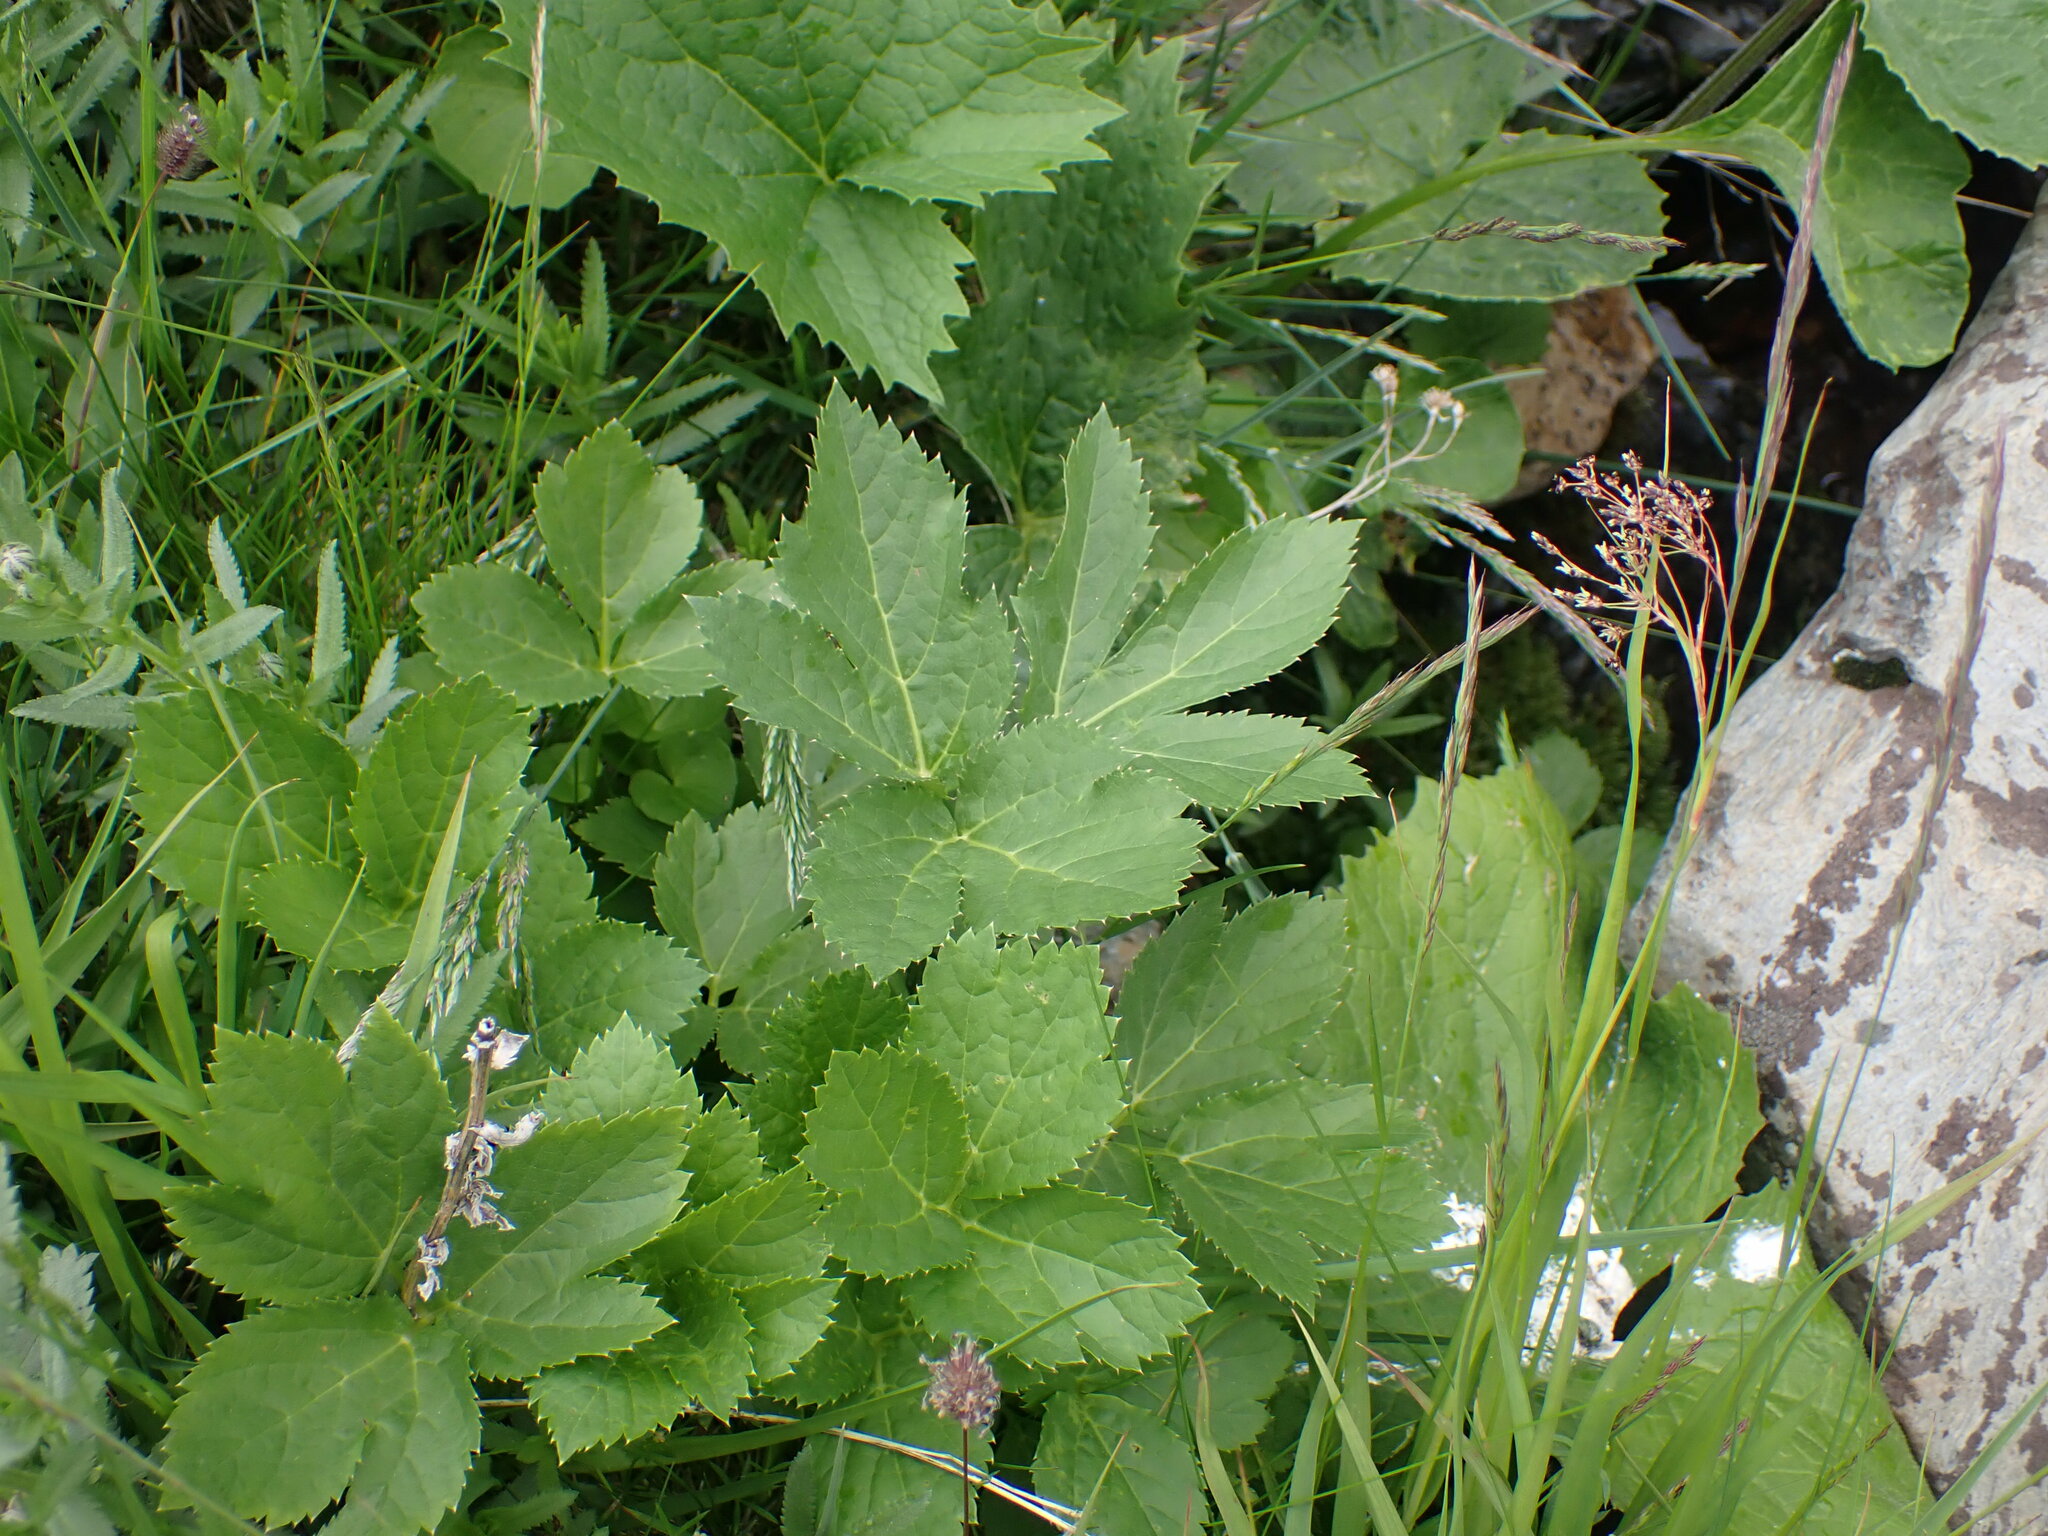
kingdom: Plantae
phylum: Tracheophyta
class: Magnoliopsida
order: Apiales
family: Apiaceae
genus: Imperatoria
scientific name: Imperatoria ostruthium
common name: Masterwort
